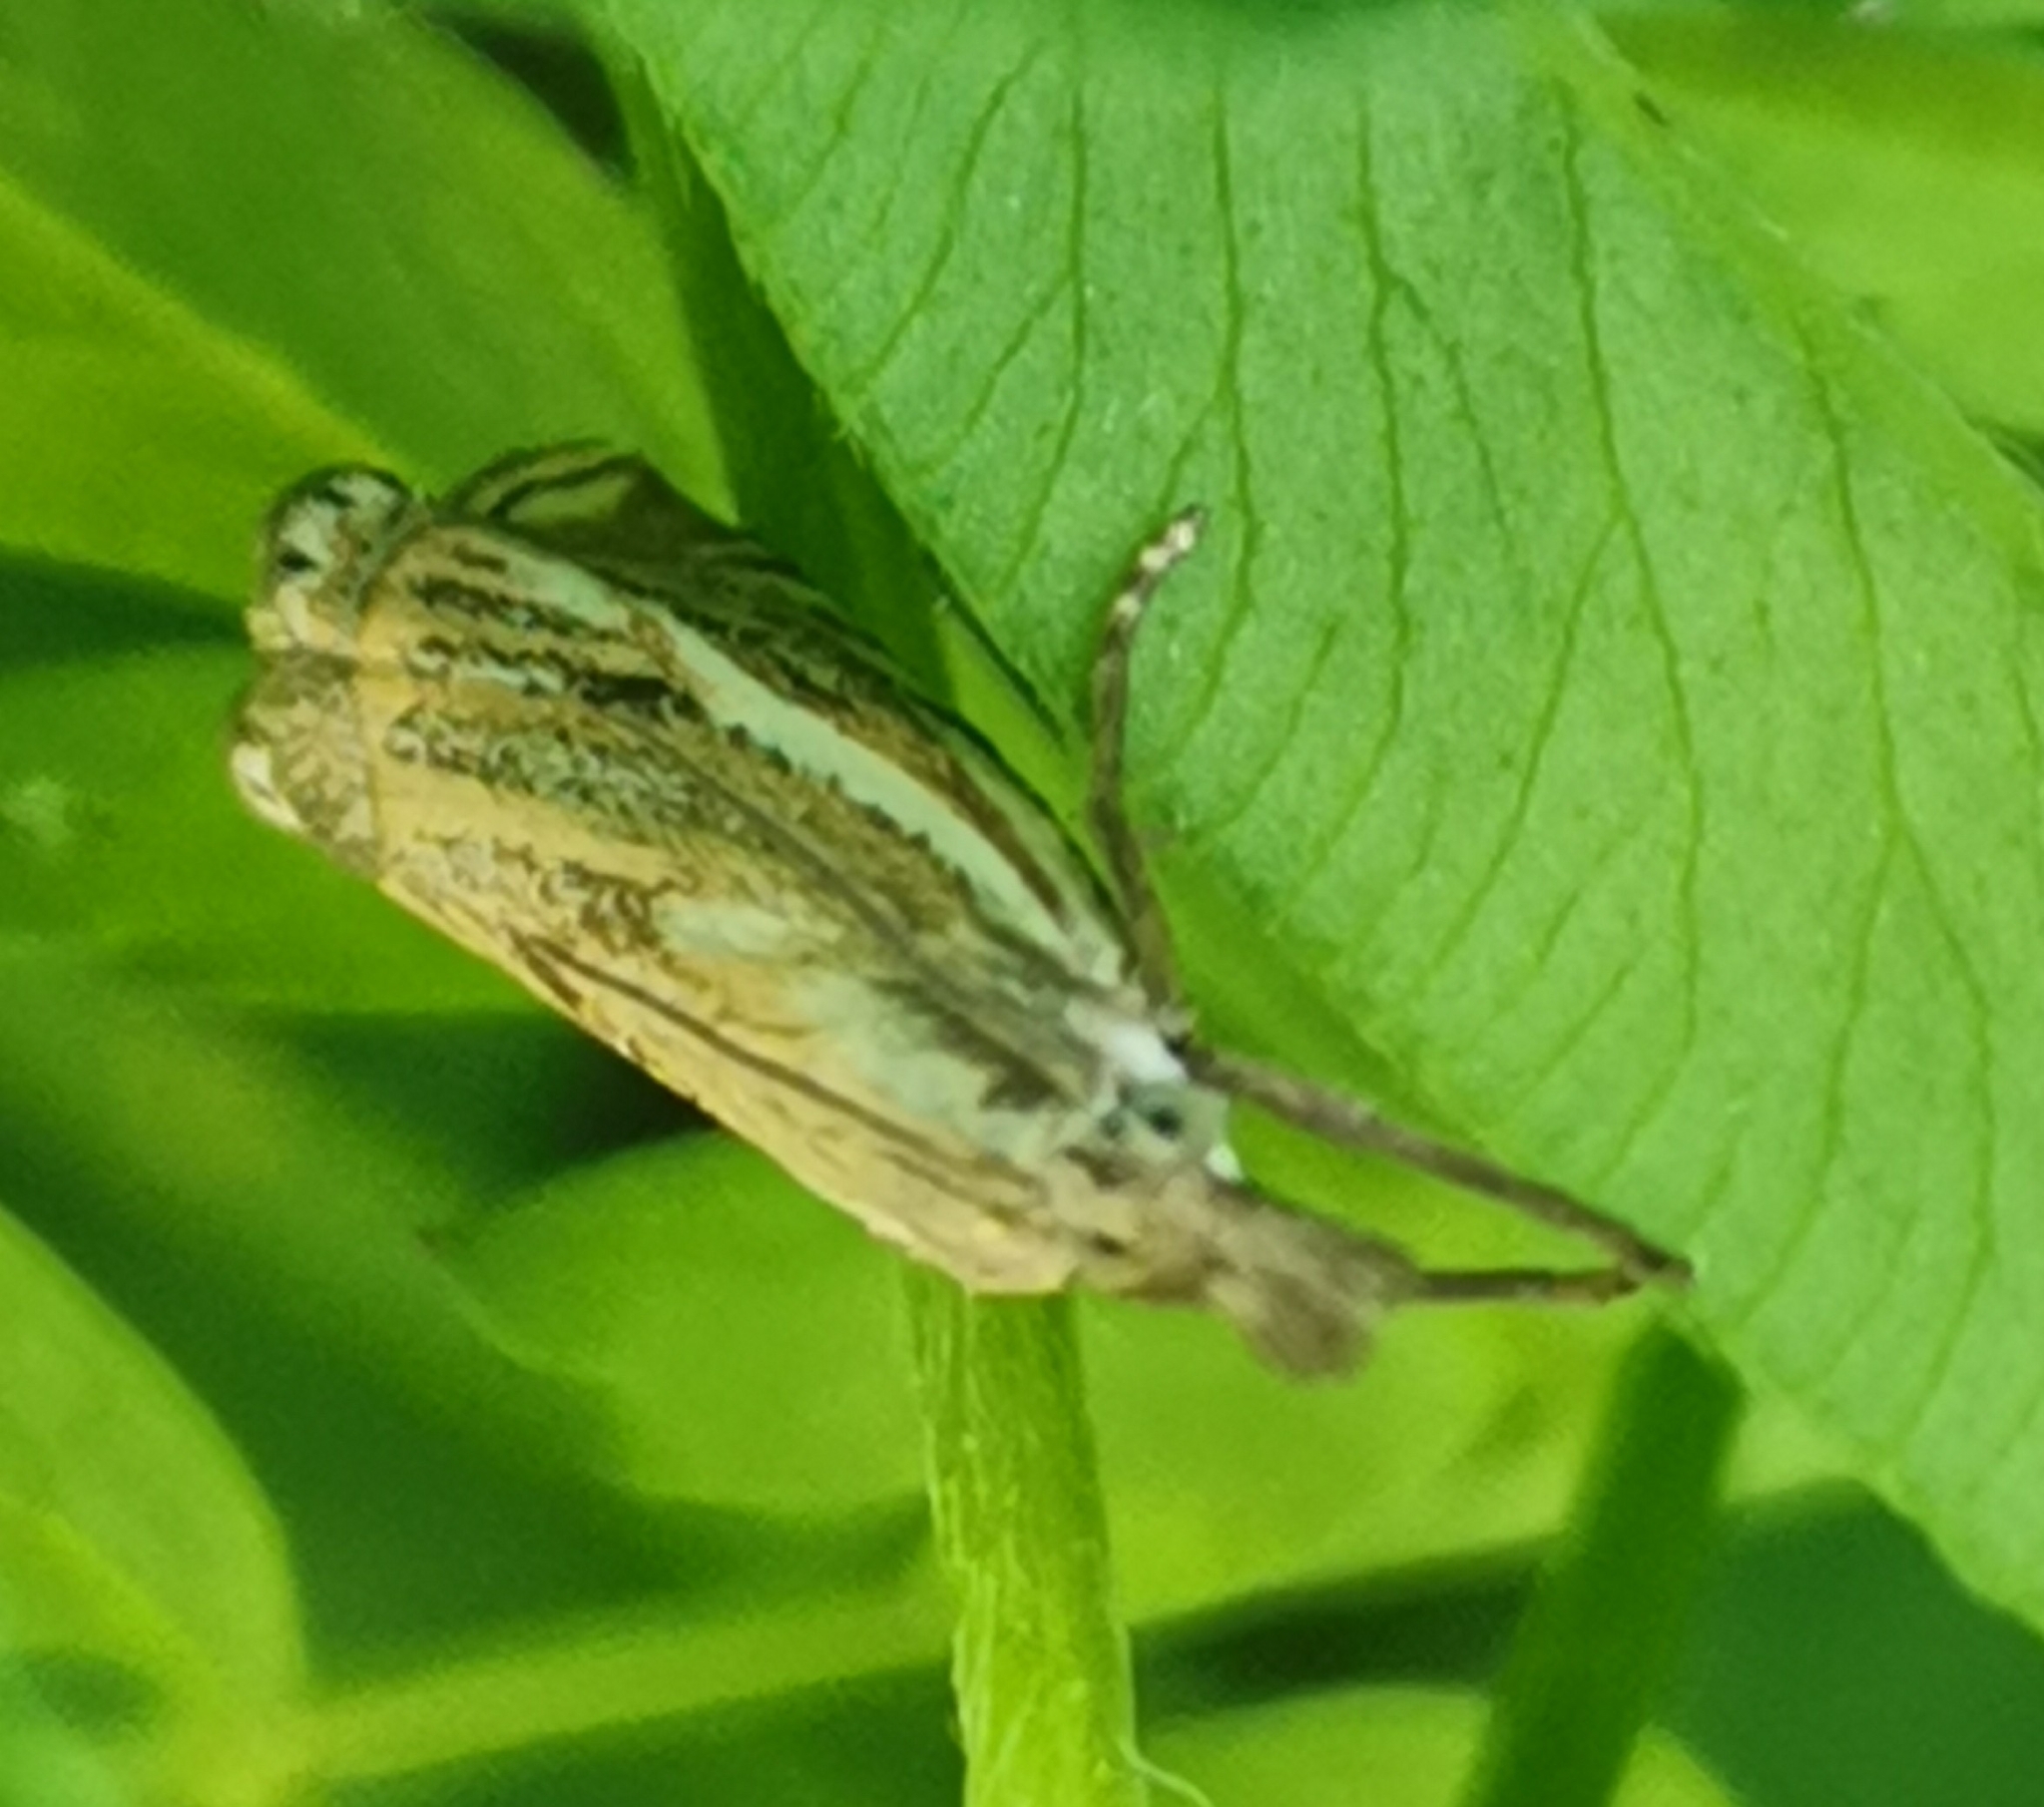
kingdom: Animalia
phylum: Arthropoda
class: Insecta
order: Lepidoptera
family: Crambidae
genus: Crambus
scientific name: Crambus nemorella
